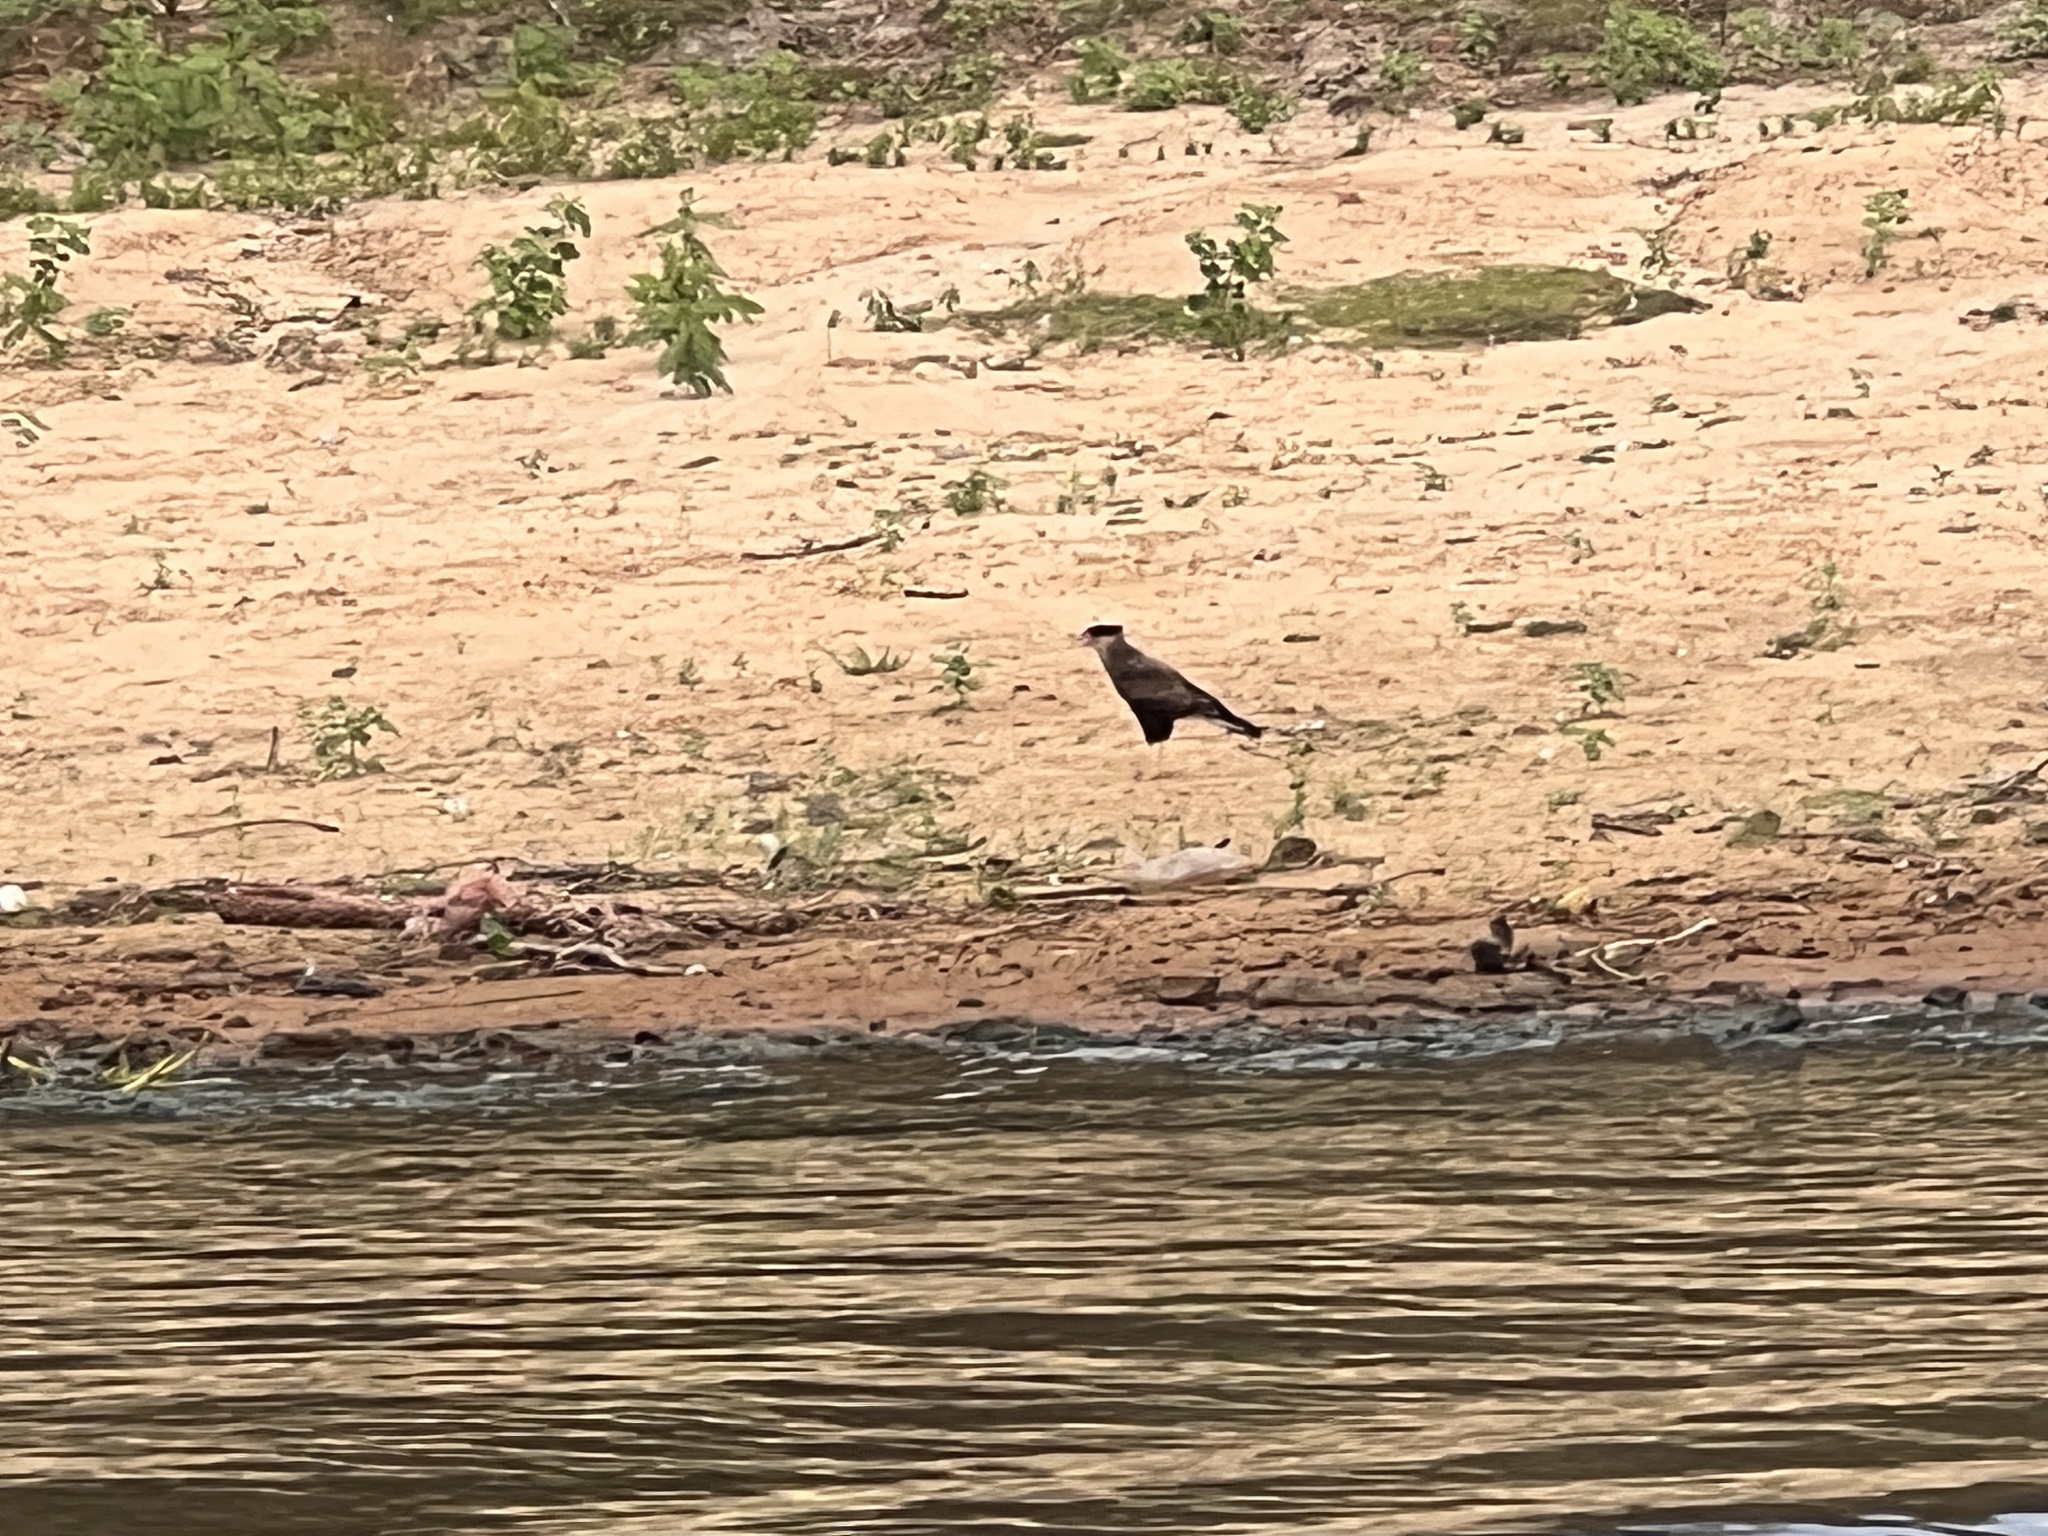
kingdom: Animalia
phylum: Chordata
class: Aves
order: Falconiformes
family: Falconidae
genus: Caracara
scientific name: Caracara plancus
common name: Southern caracara
